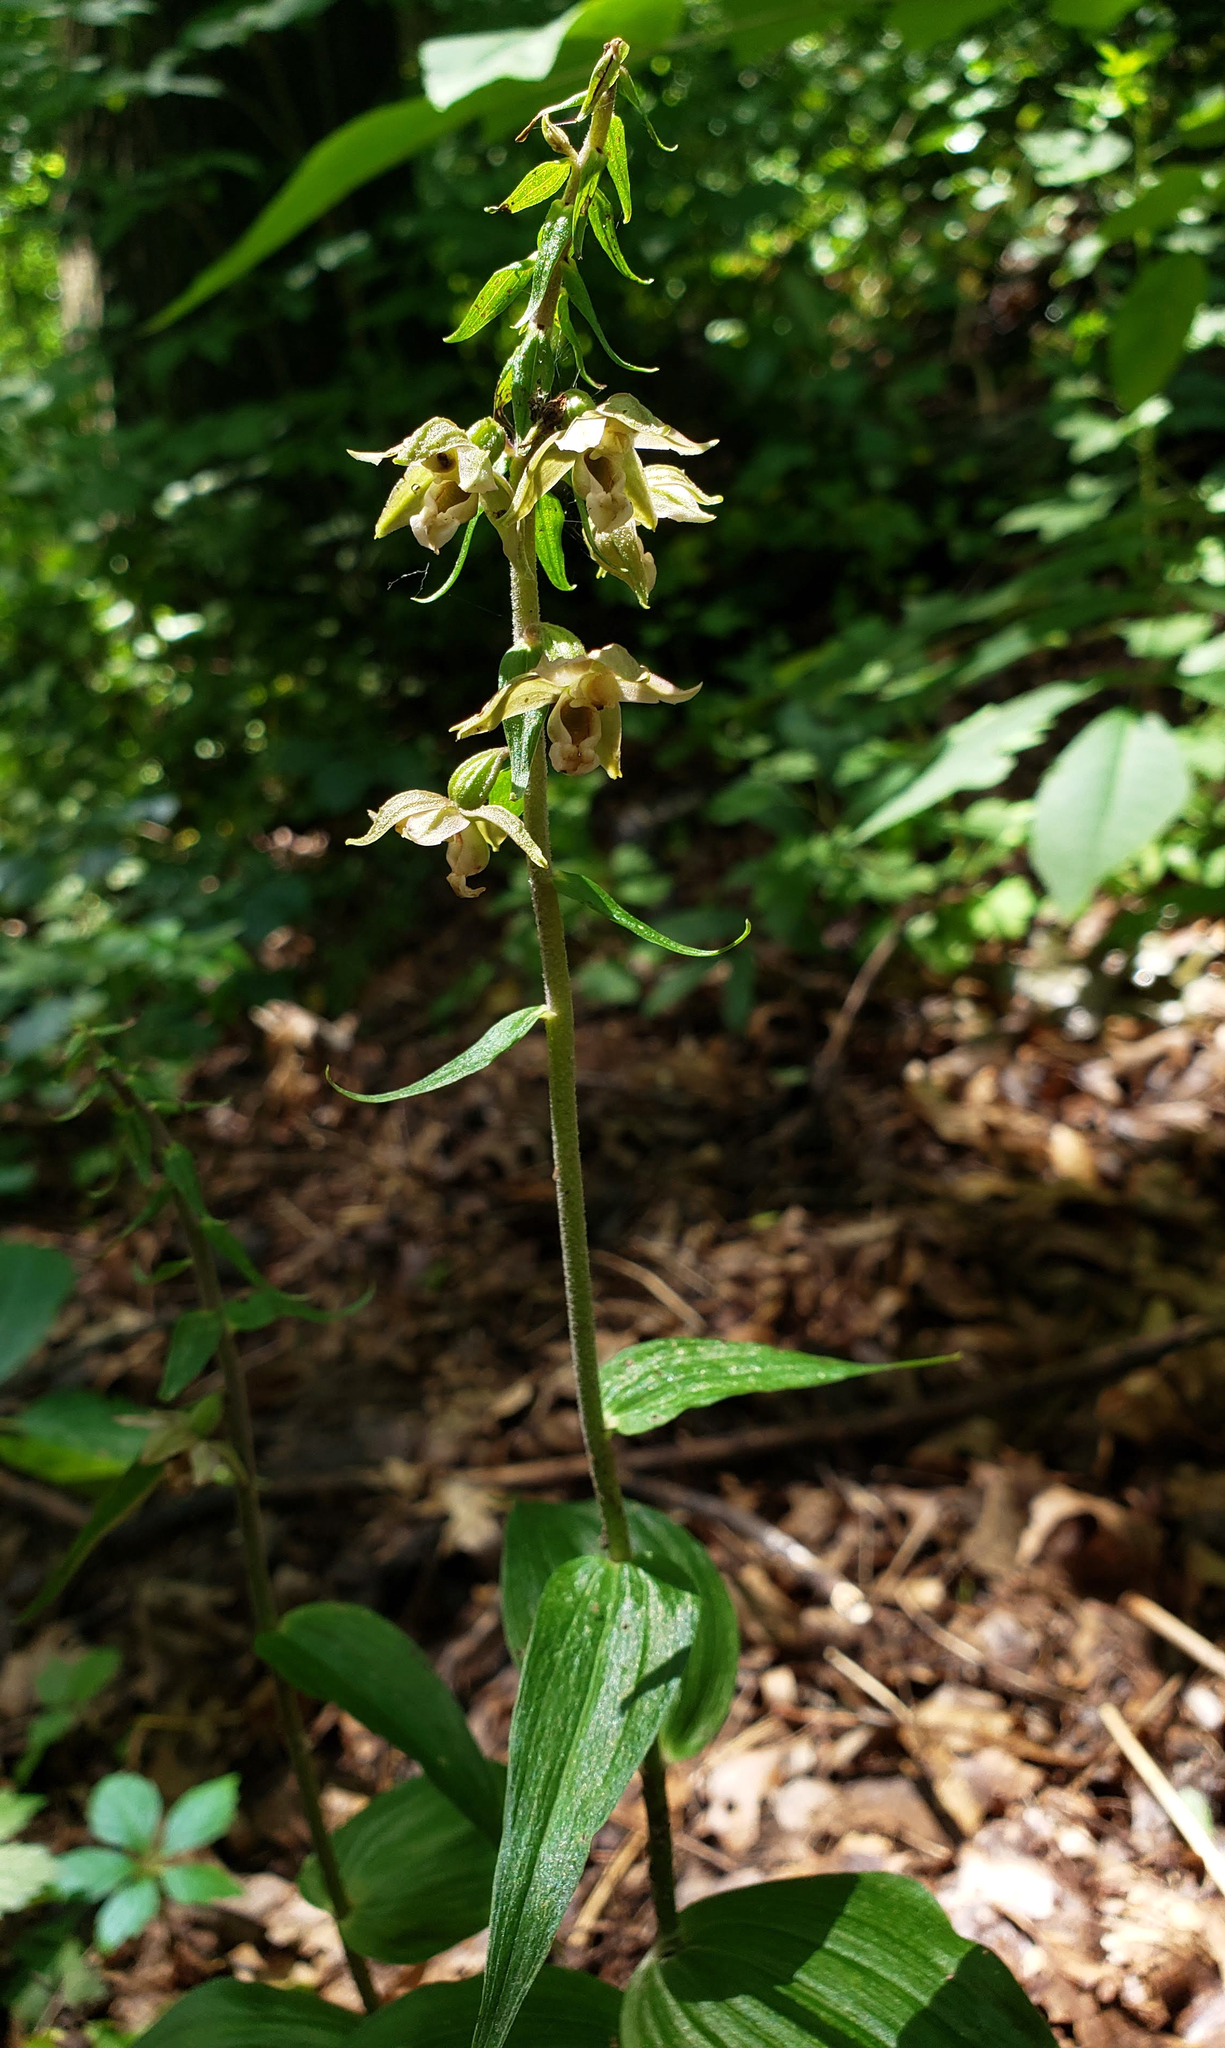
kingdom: Plantae
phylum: Tracheophyta
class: Liliopsida
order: Asparagales
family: Orchidaceae
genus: Epipactis
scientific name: Epipactis helleborine
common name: Broad-leaved helleborine
